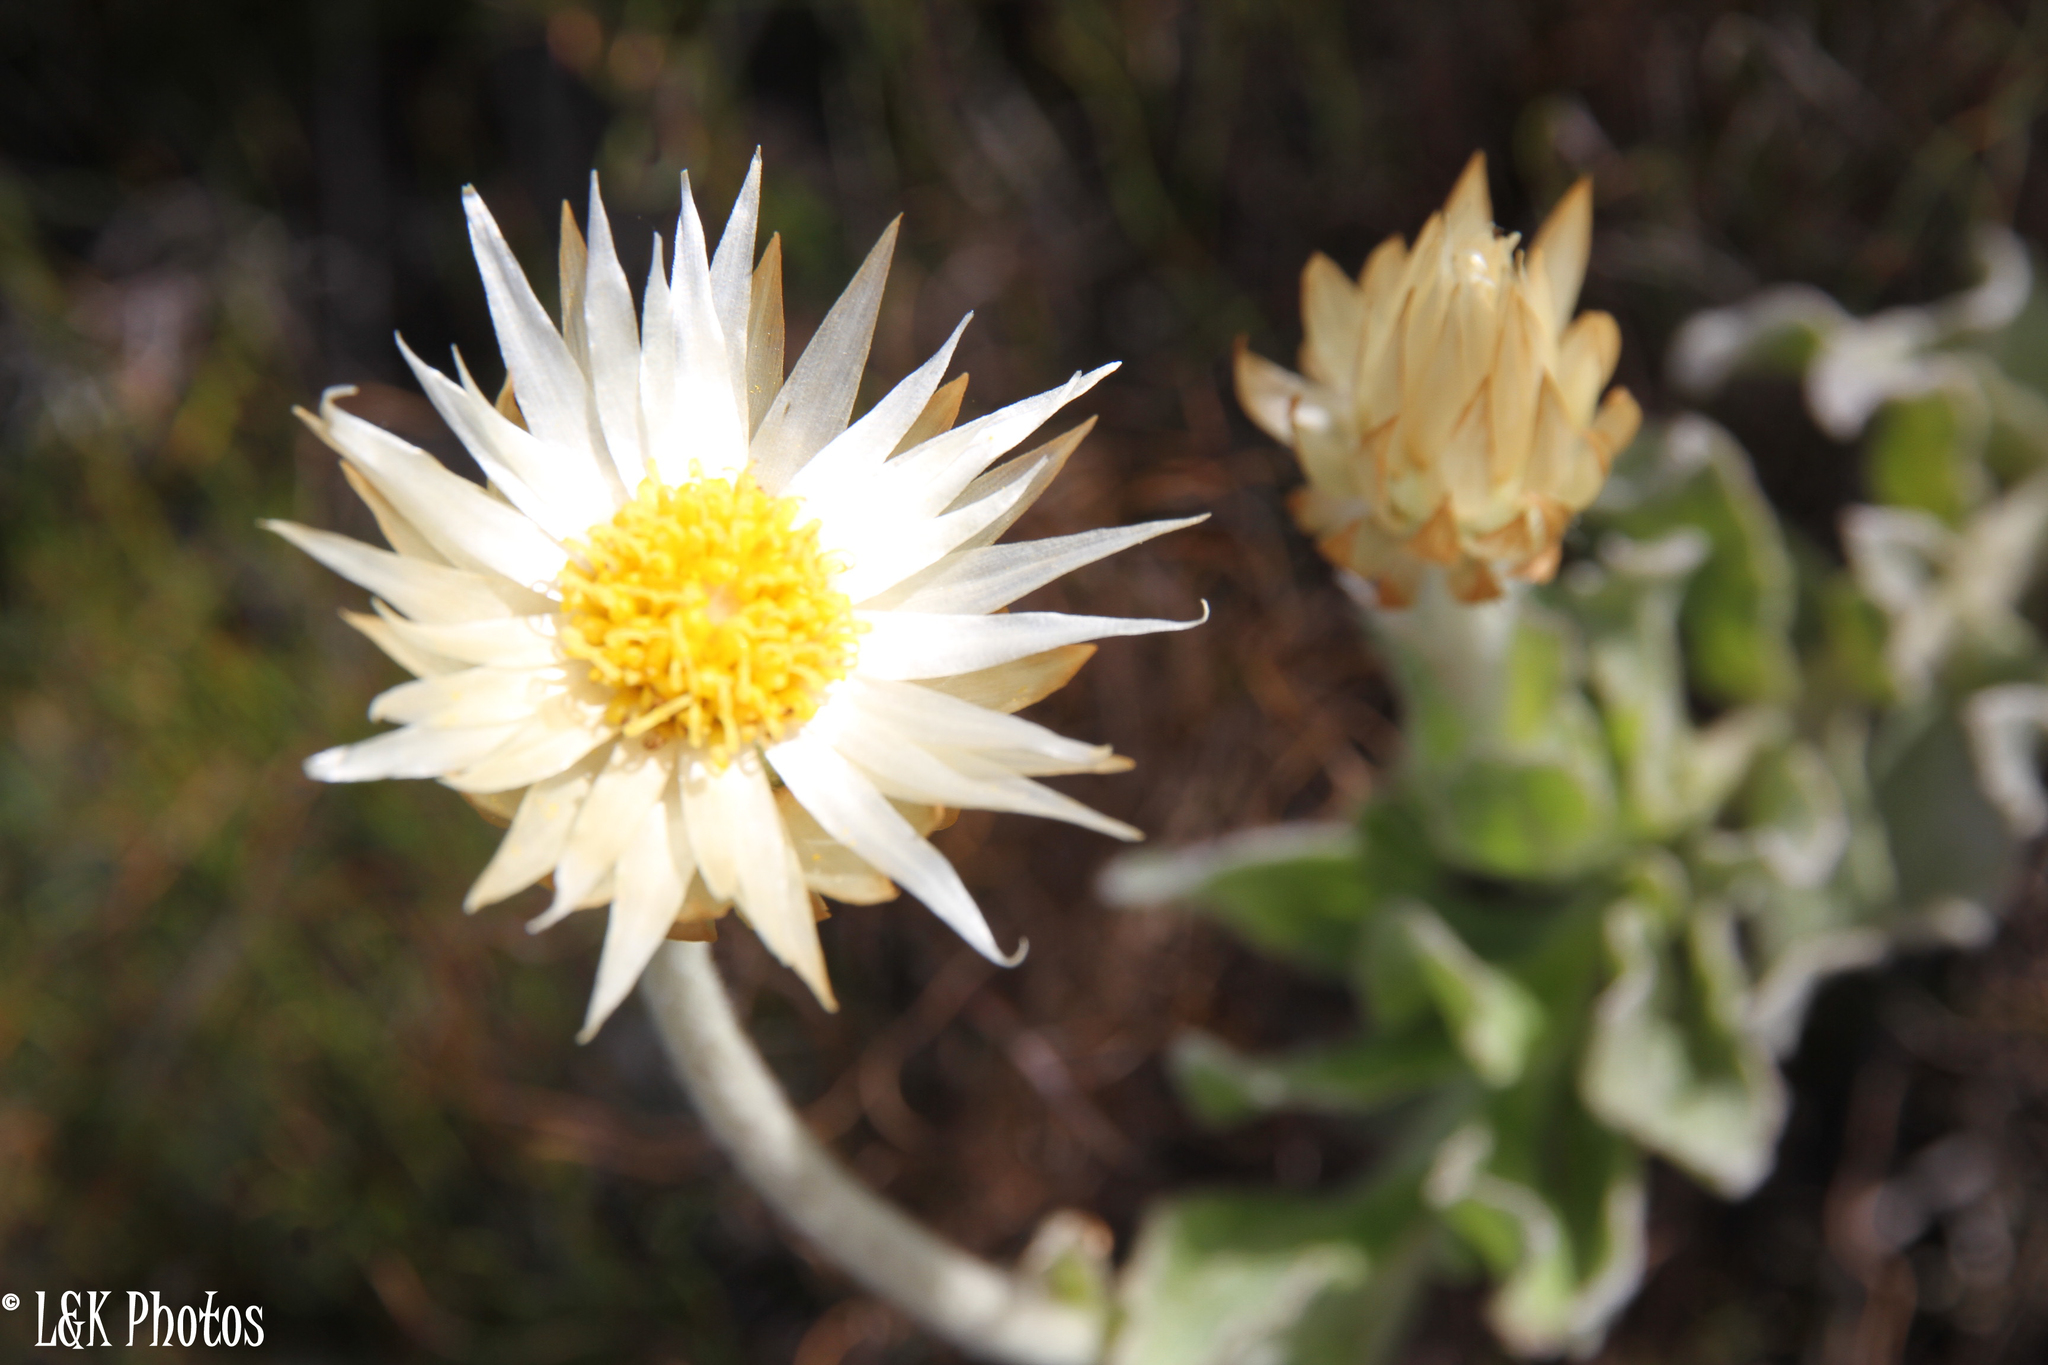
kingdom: Plantae
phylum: Tracheophyta
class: Magnoliopsida
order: Asterales
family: Asteraceae
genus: Syncarpha
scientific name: Syncarpha speciosissima
